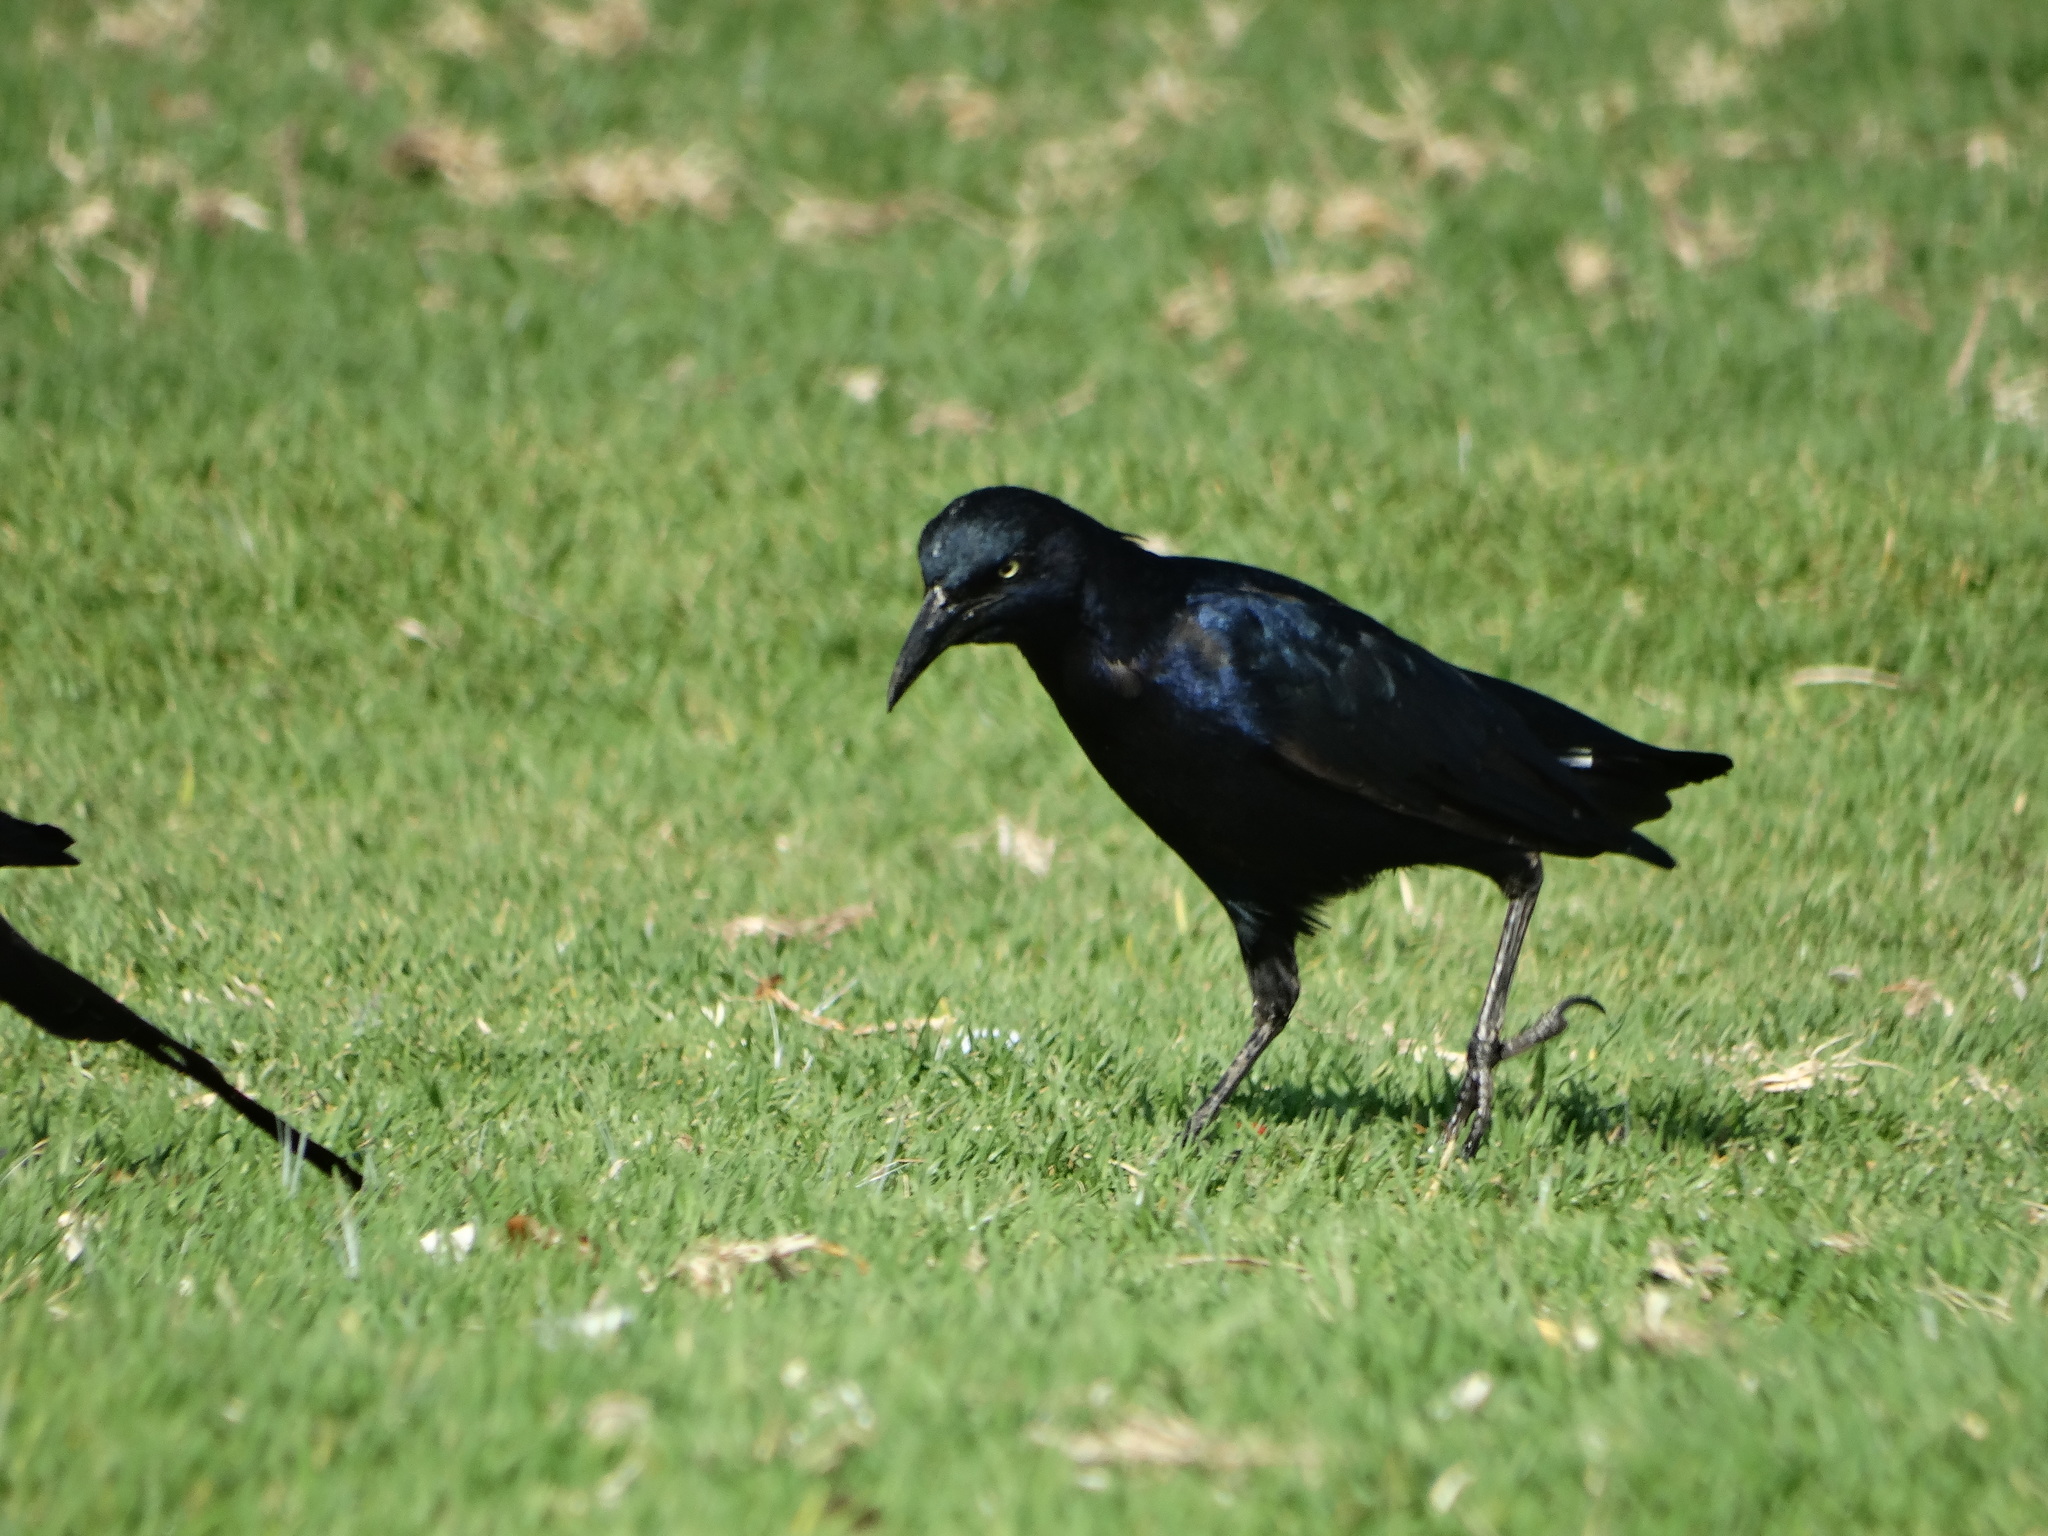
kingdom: Animalia
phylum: Chordata
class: Aves
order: Passeriformes
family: Icteridae
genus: Quiscalus
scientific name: Quiscalus mexicanus
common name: Great-tailed grackle
